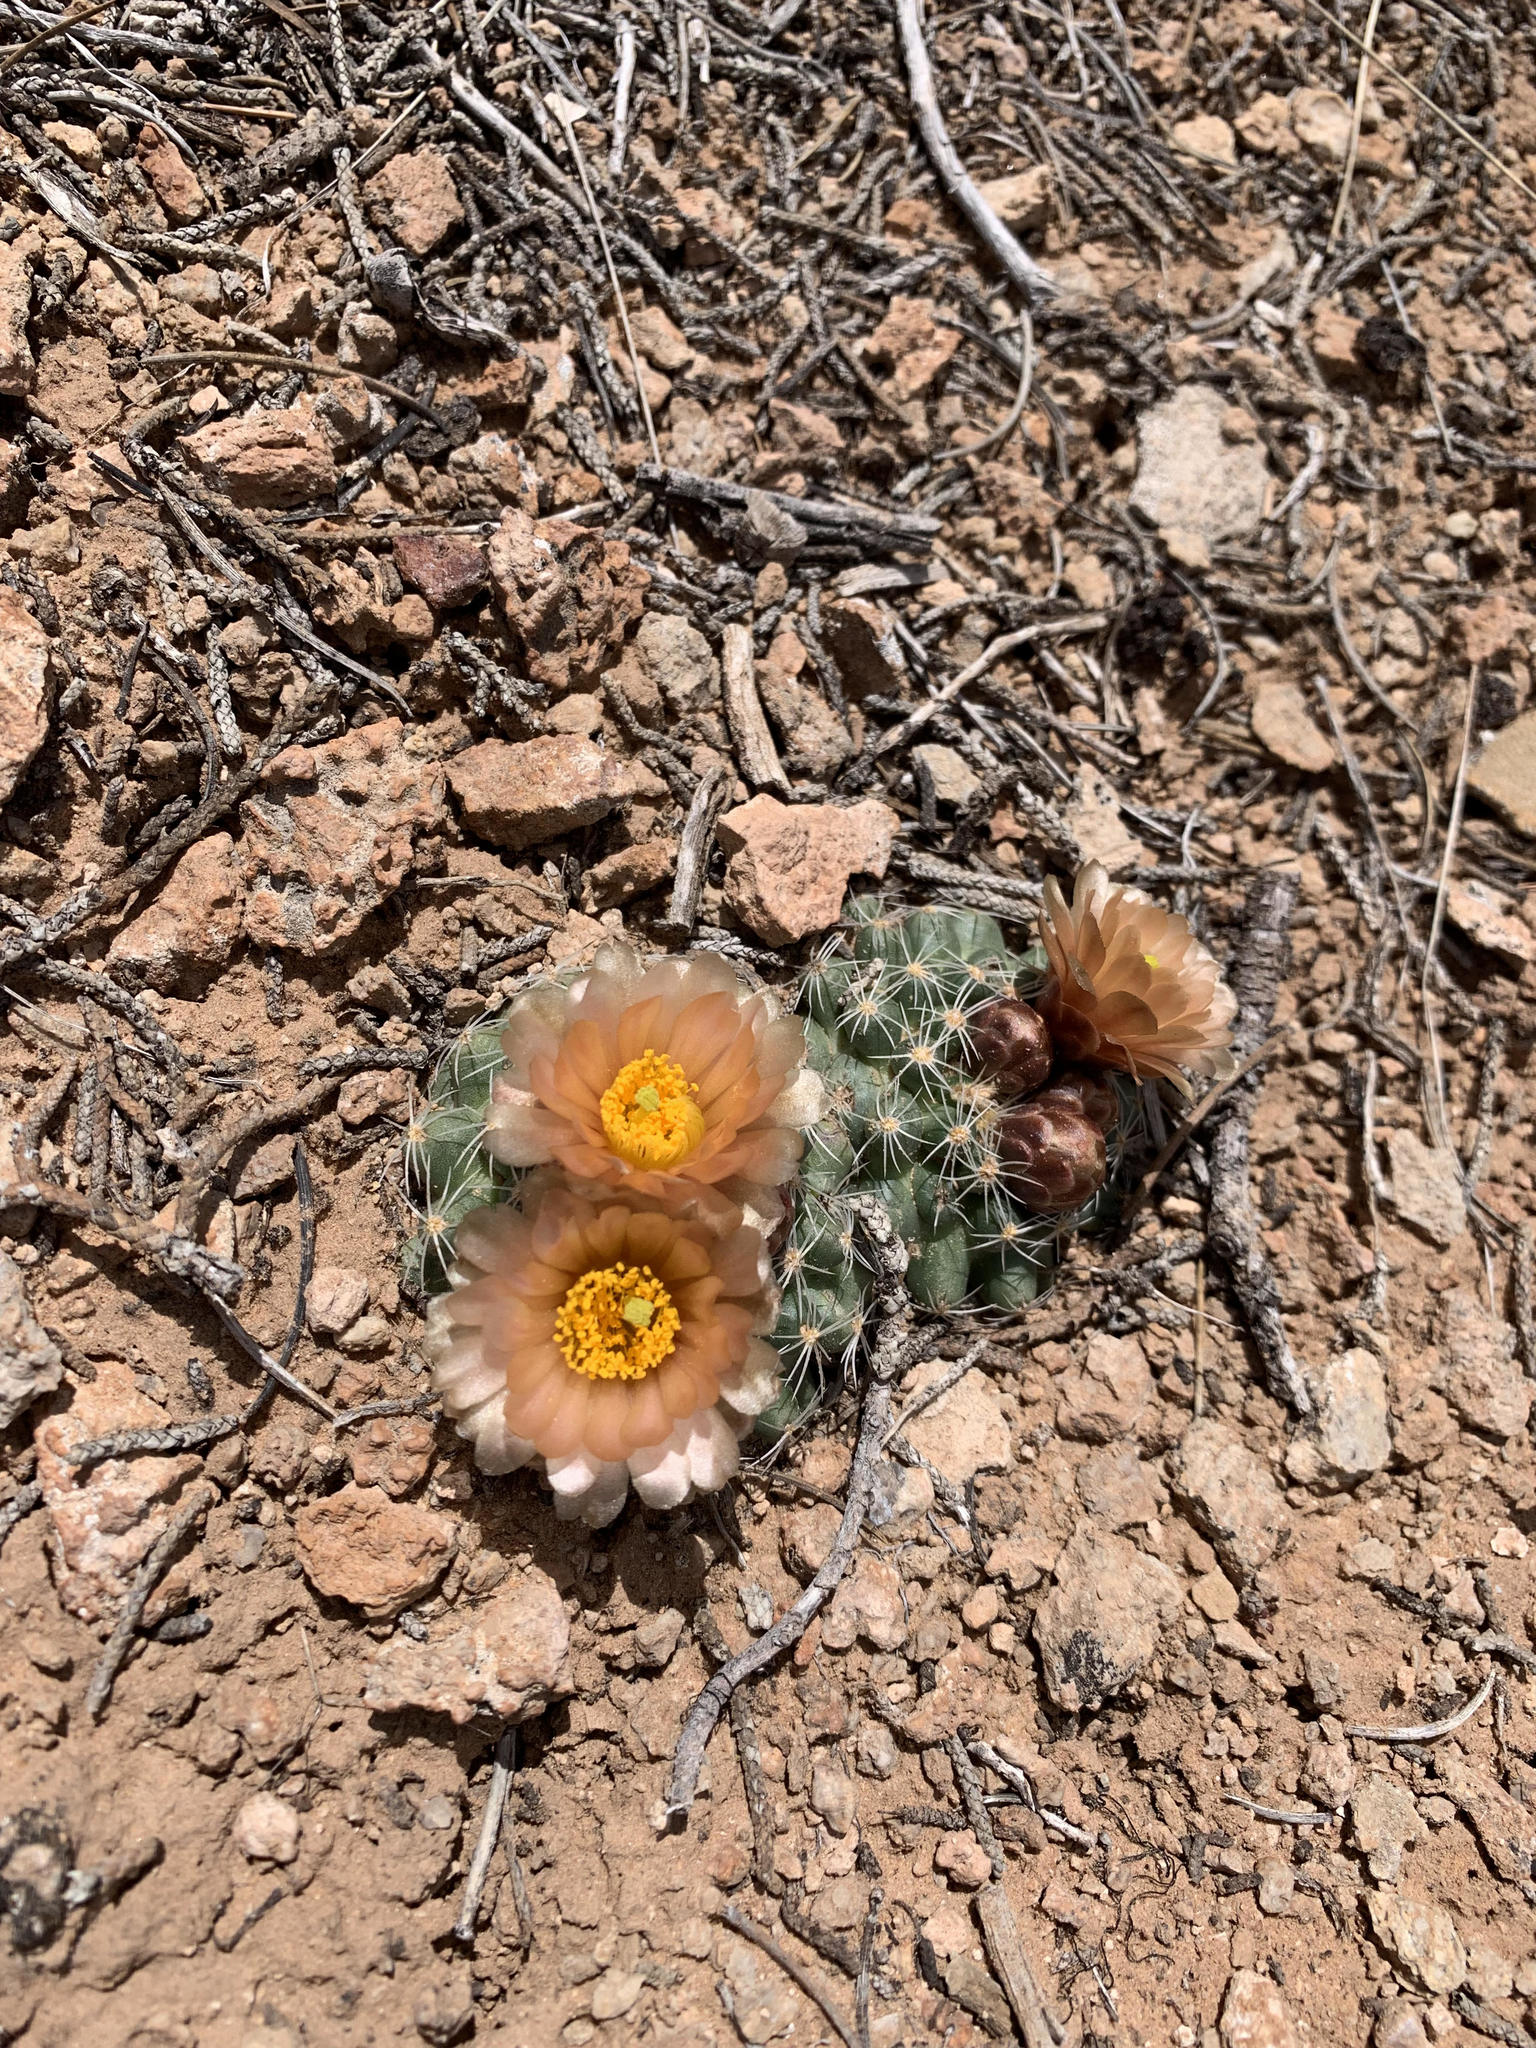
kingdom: Plantae
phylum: Tracheophyta
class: Magnoliopsida
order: Caryophyllales
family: Cactaceae
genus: Pediocactus
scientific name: Pediocactus bradyi
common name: Brady's hedgehog cactus
